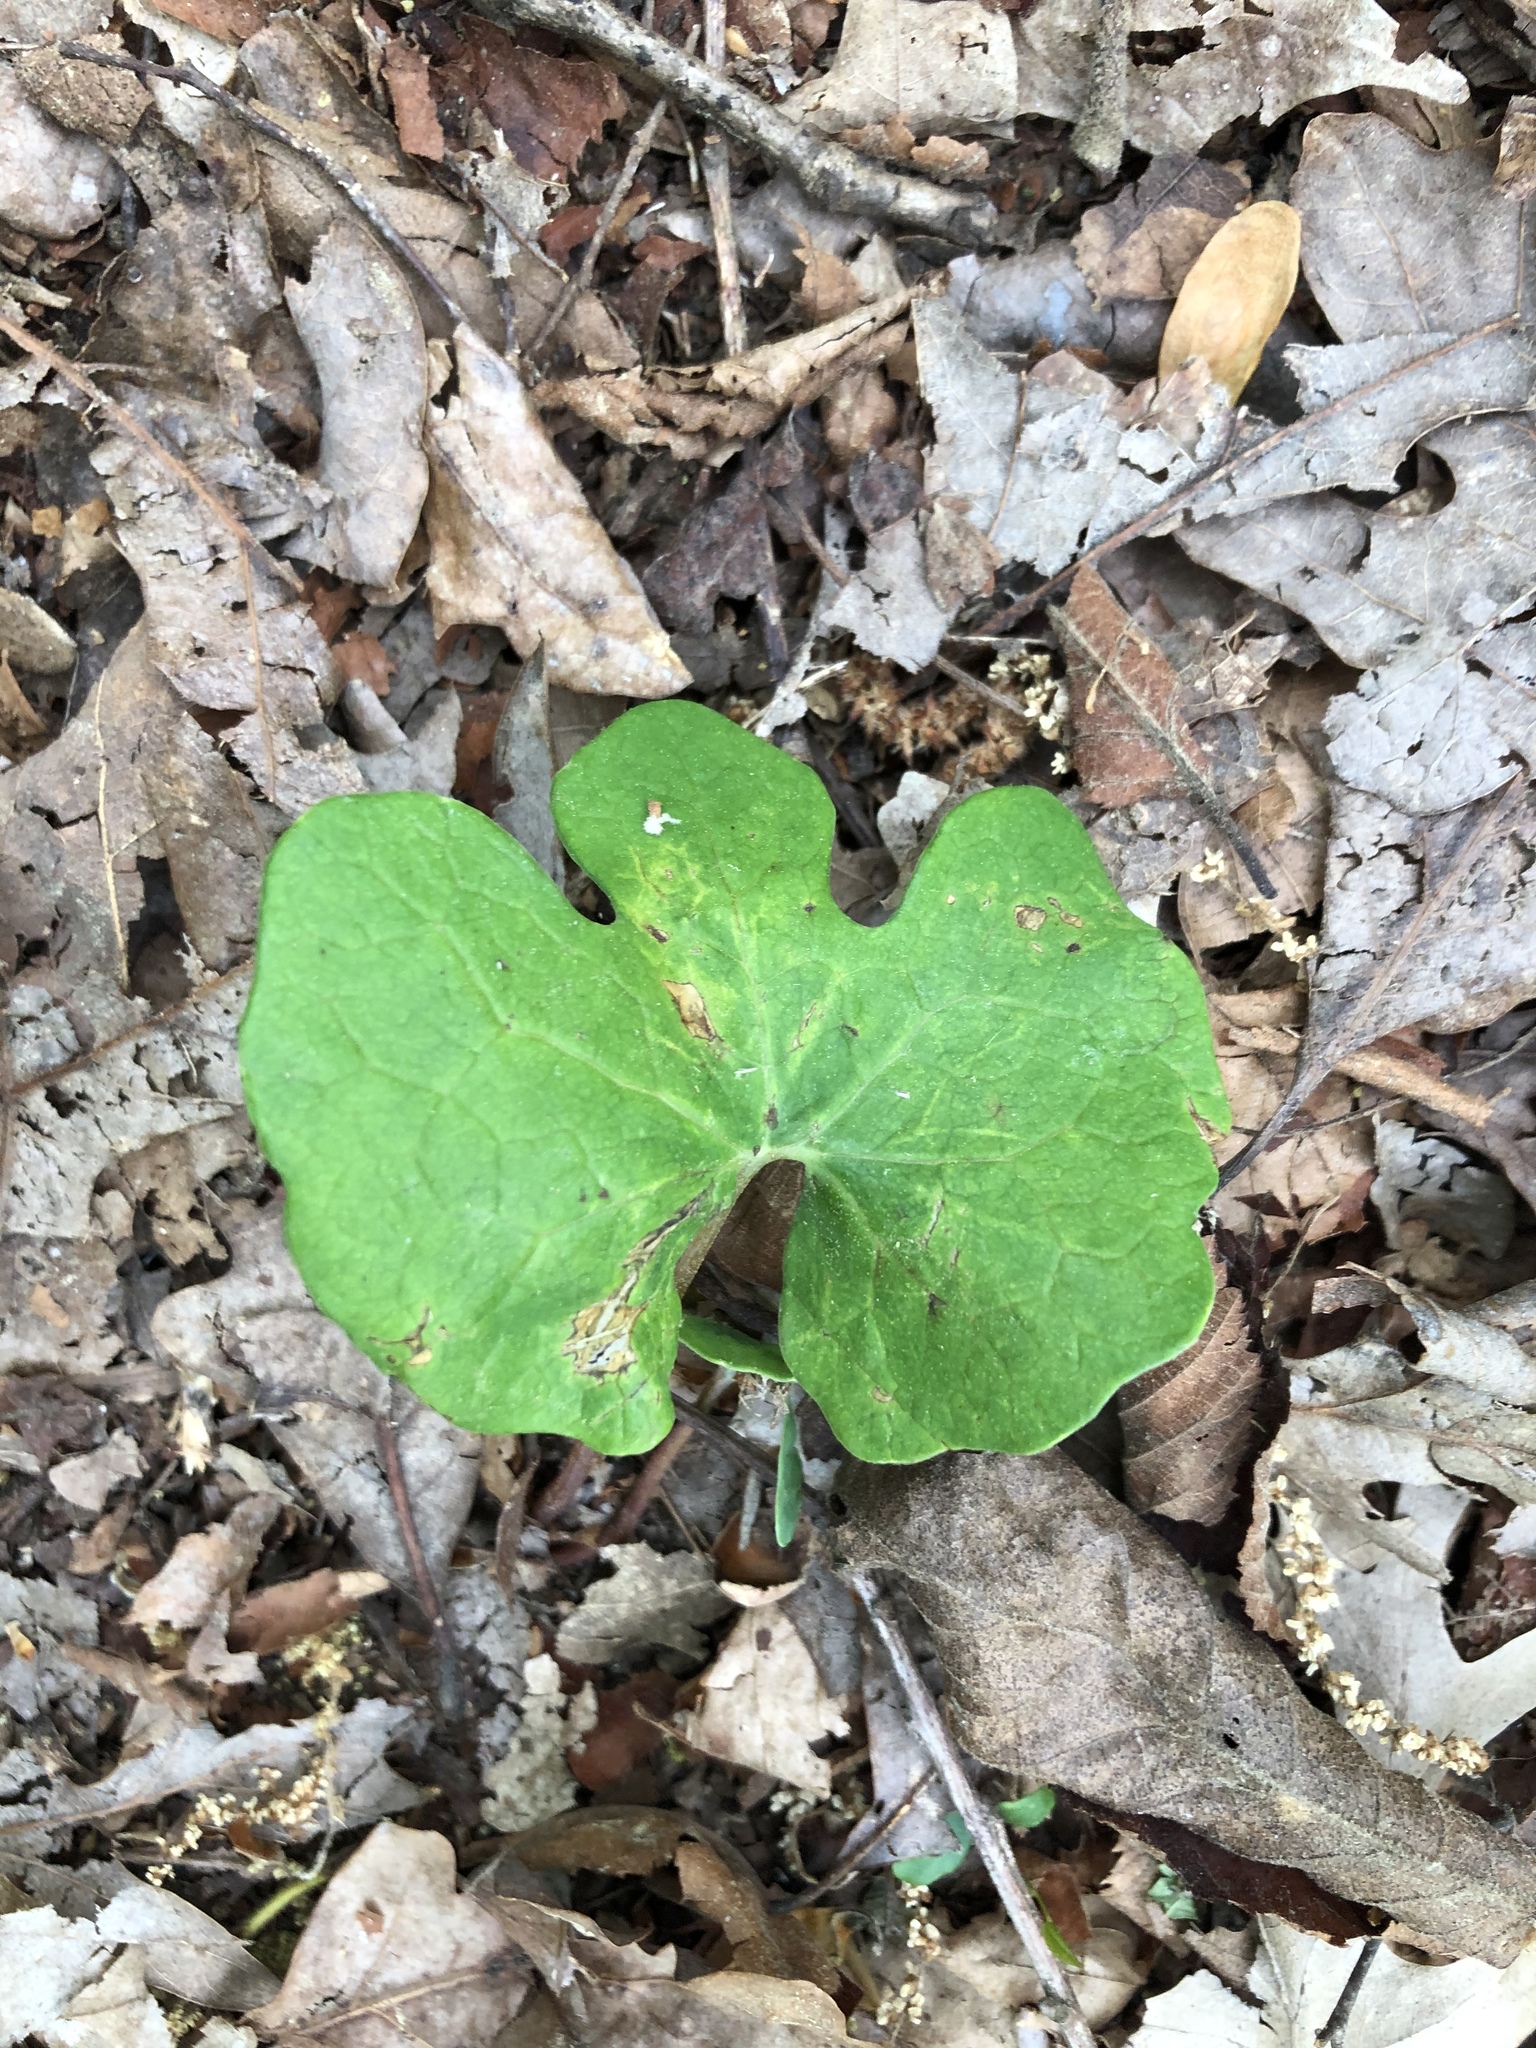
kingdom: Plantae
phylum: Tracheophyta
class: Magnoliopsida
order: Ranunculales
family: Papaveraceae
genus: Sanguinaria
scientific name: Sanguinaria canadensis
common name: Bloodroot
